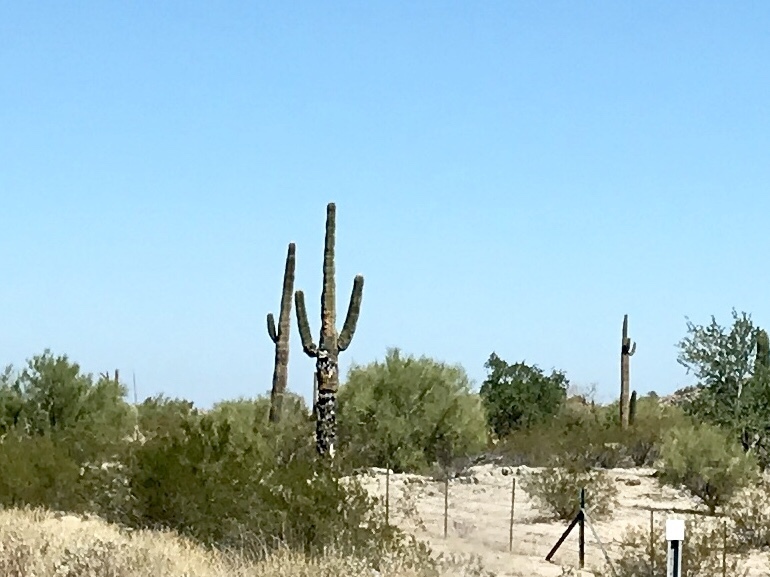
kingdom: Plantae
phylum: Tracheophyta
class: Magnoliopsida
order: Caryophyllales
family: Cactaceae
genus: Carnegiea
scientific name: Carnegiea gigantea
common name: Saguaro
